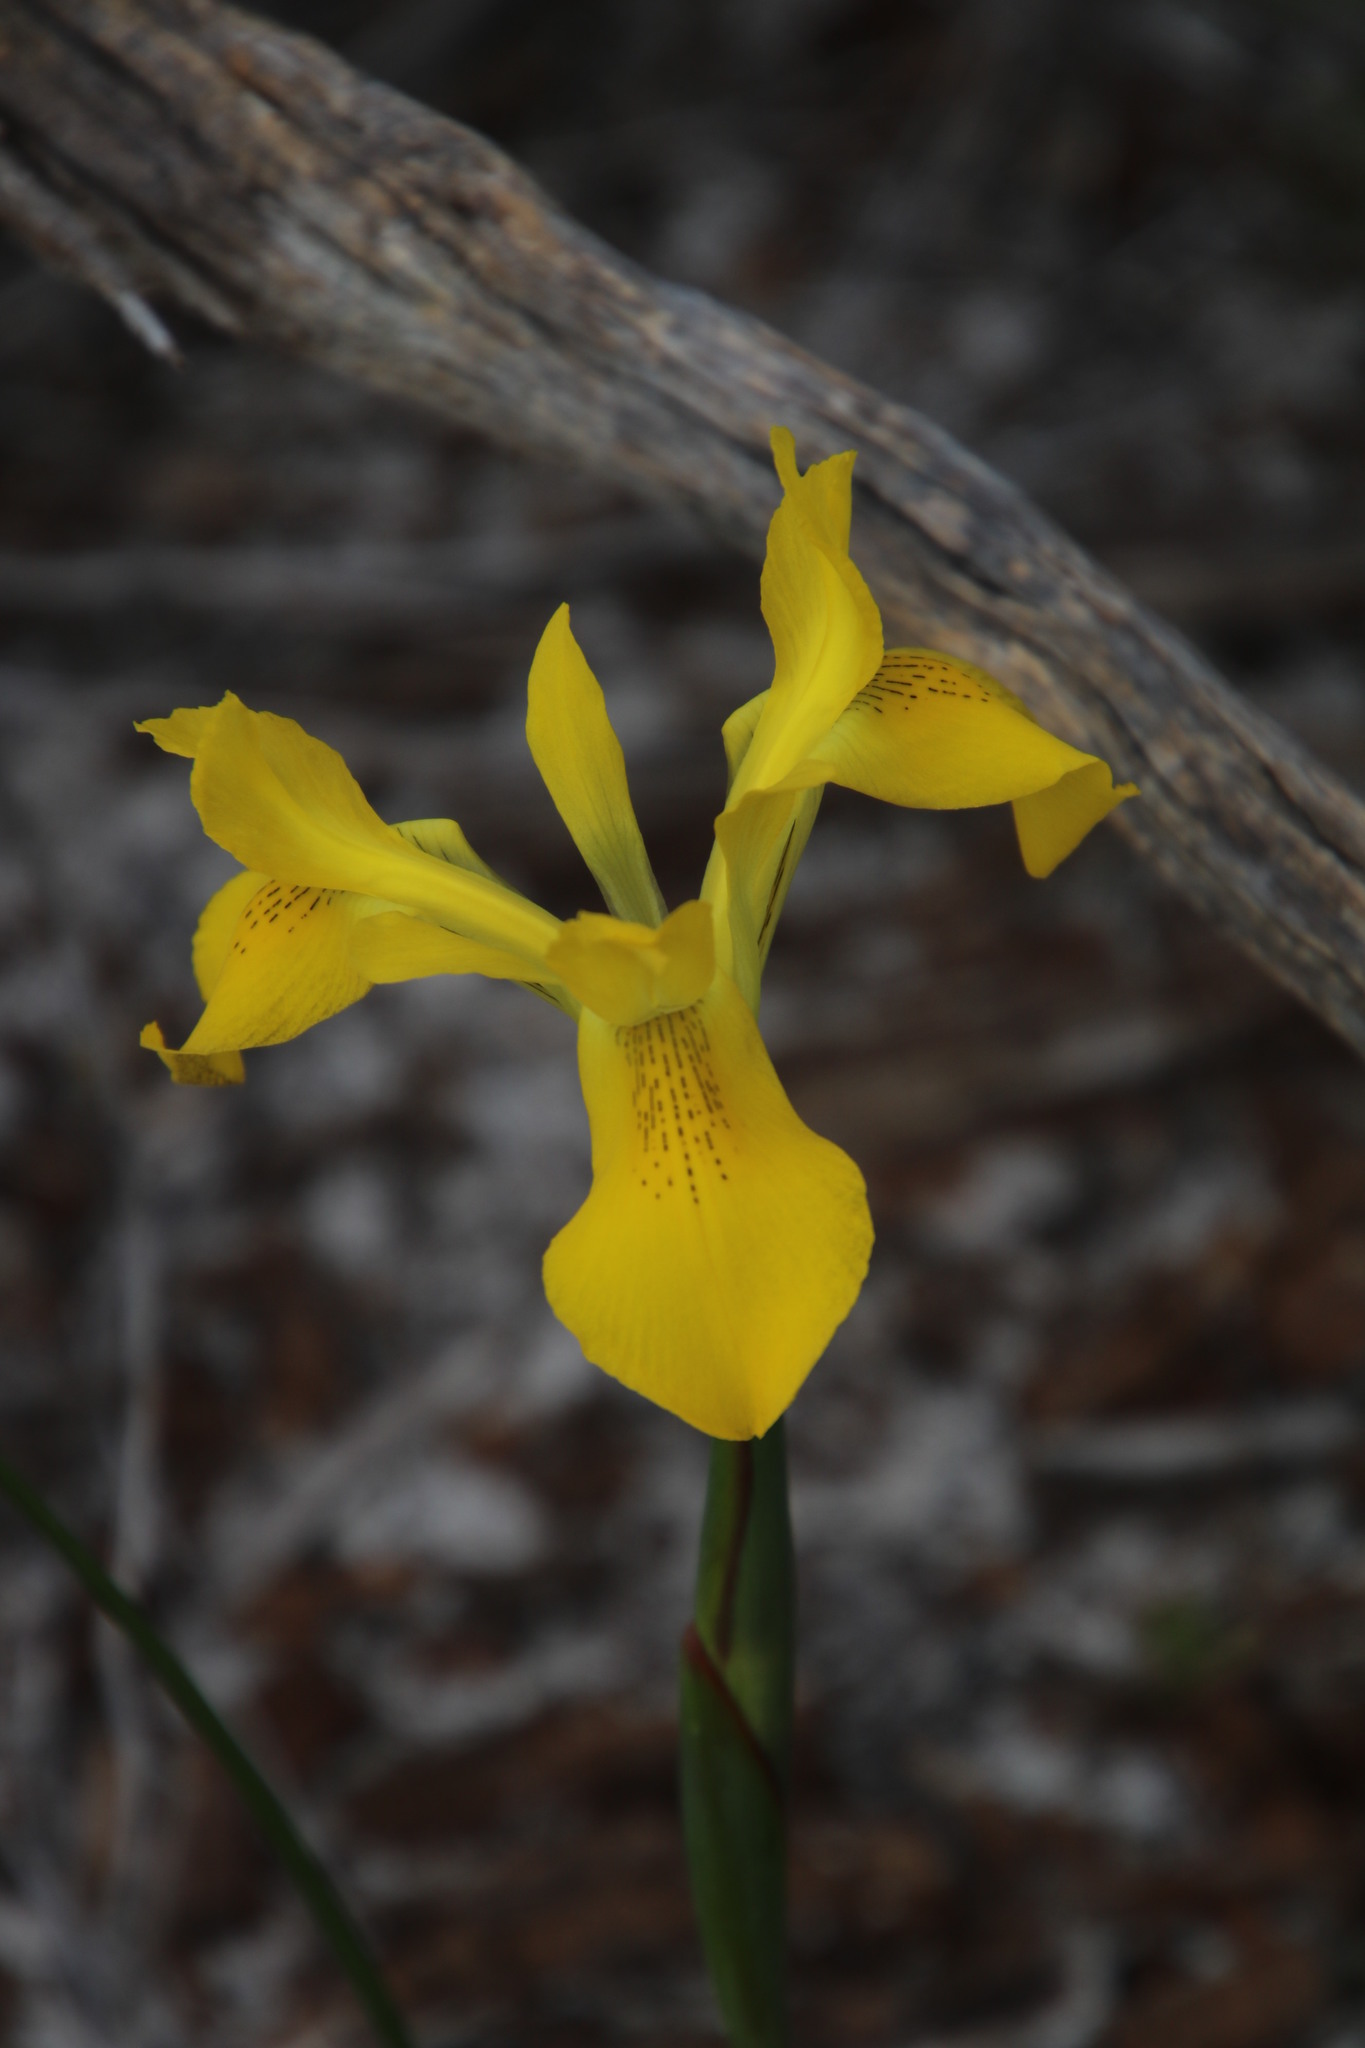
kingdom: Plantae
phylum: Tracheophyta
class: Liliopsida
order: Asparagales
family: Iridaceae
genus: Moraea
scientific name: Moraea neglecta
